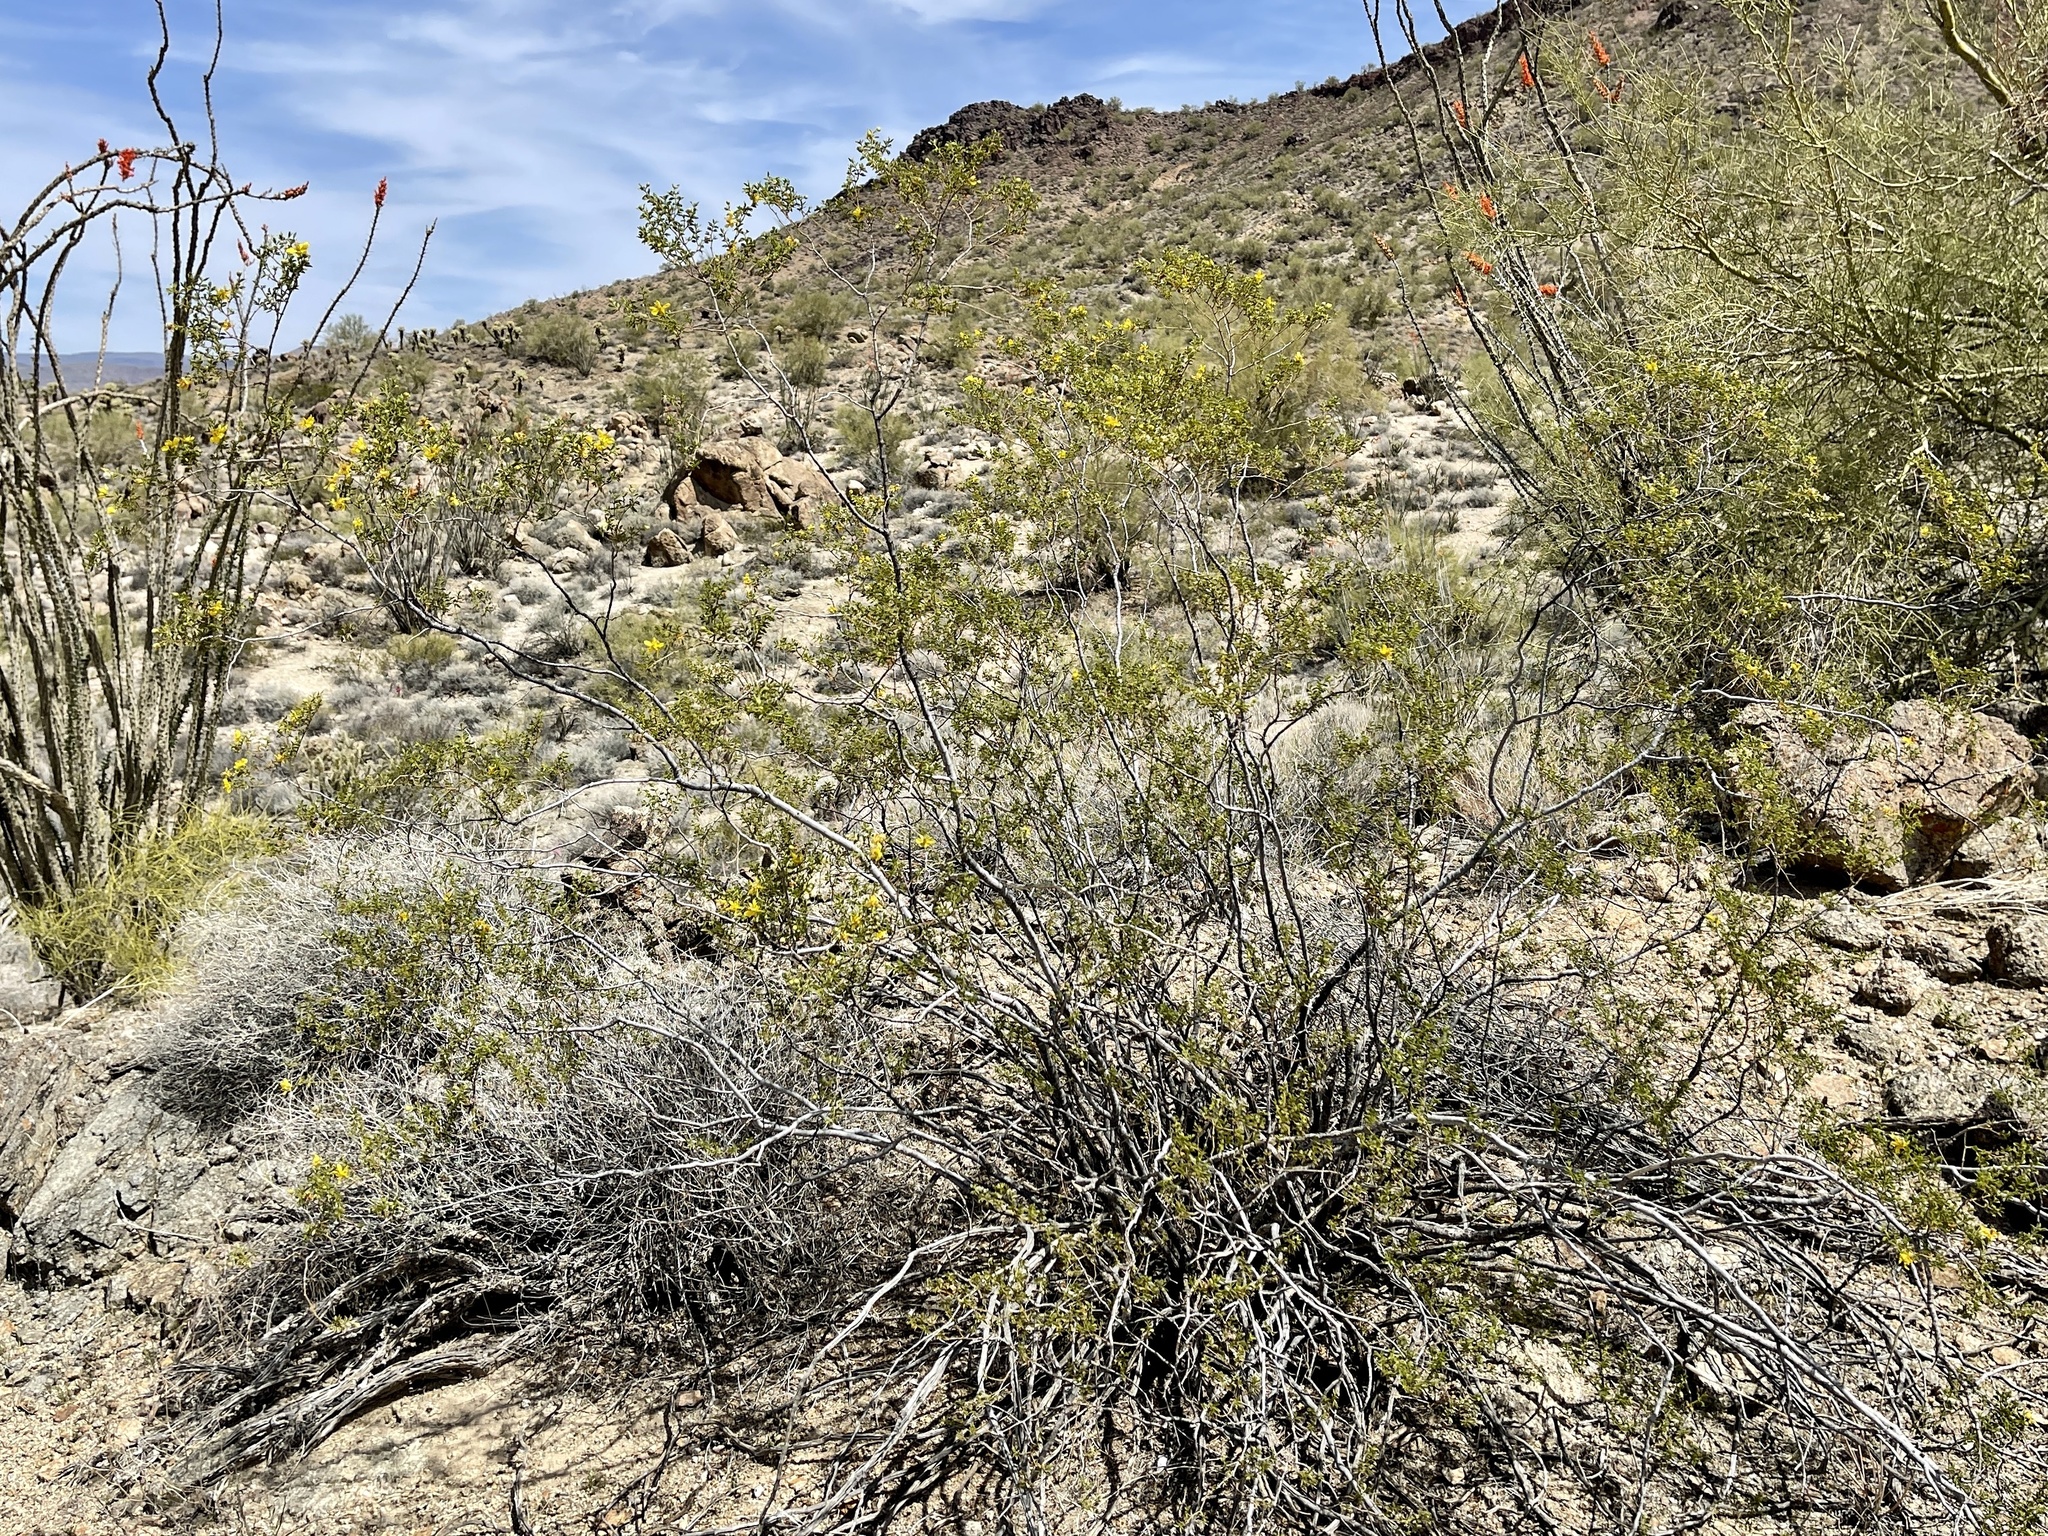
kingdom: Plantae
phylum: Tracheophyta
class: Magnoliopsida
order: Zygophyllales
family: Zygophyllaceae
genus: Larrea
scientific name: Larrea tridentata
